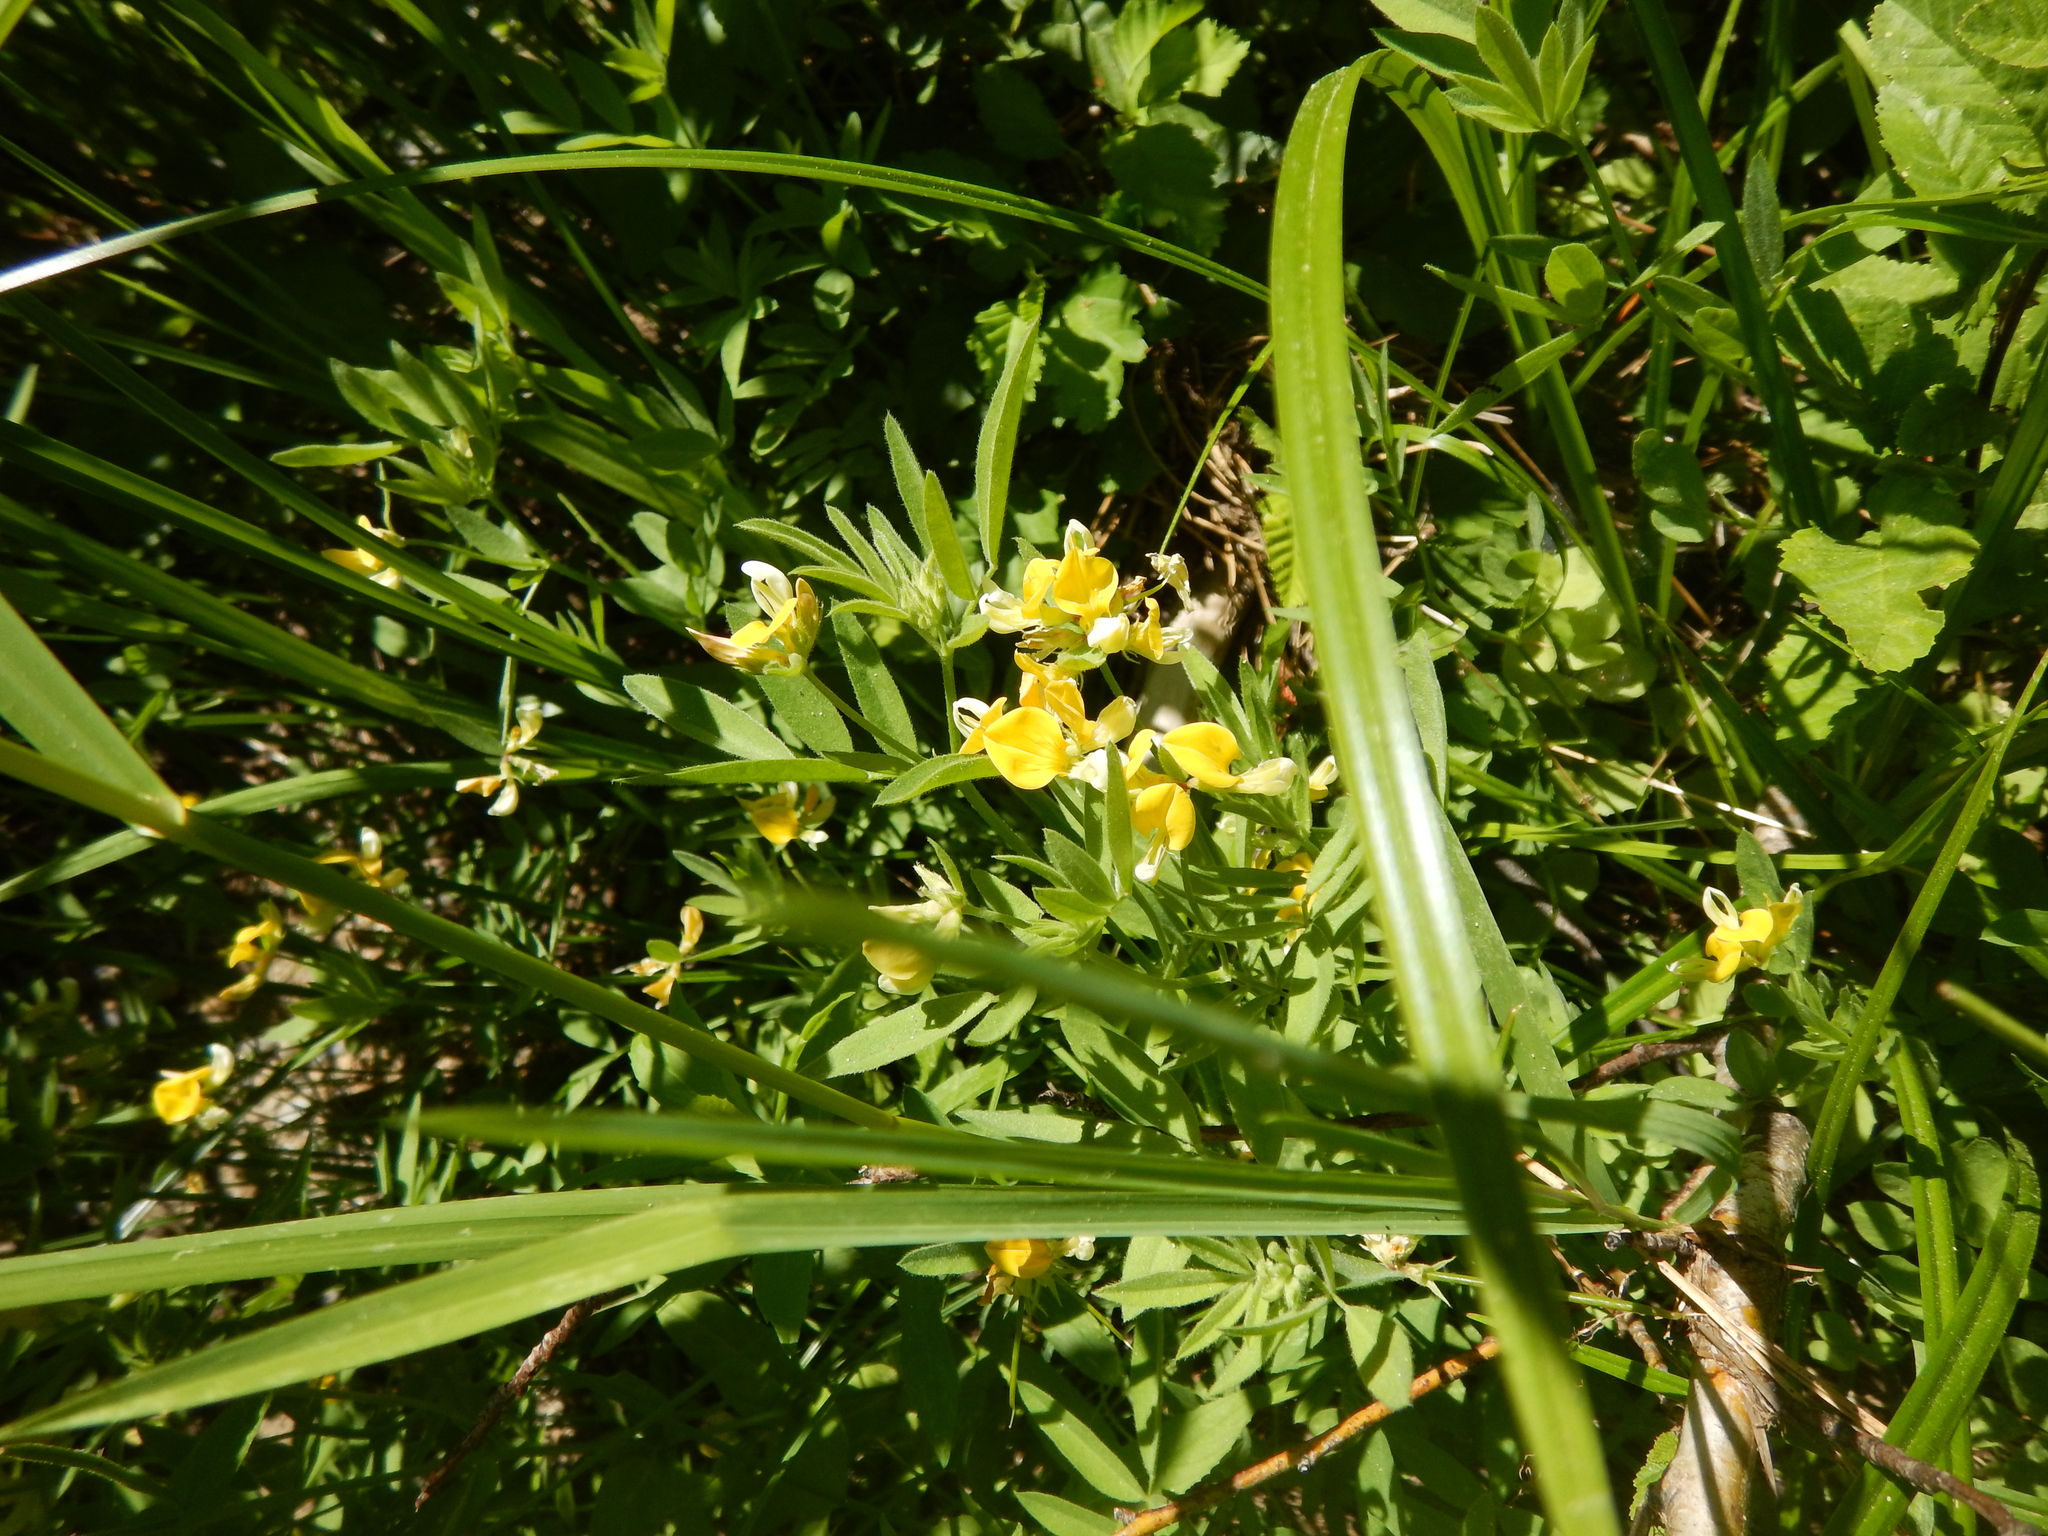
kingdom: Plantae
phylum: Tracheophyta
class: Magnoliopsida
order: Fabales
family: Fabaceae
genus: Hosackia
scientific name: Hosackia oblongifolia
